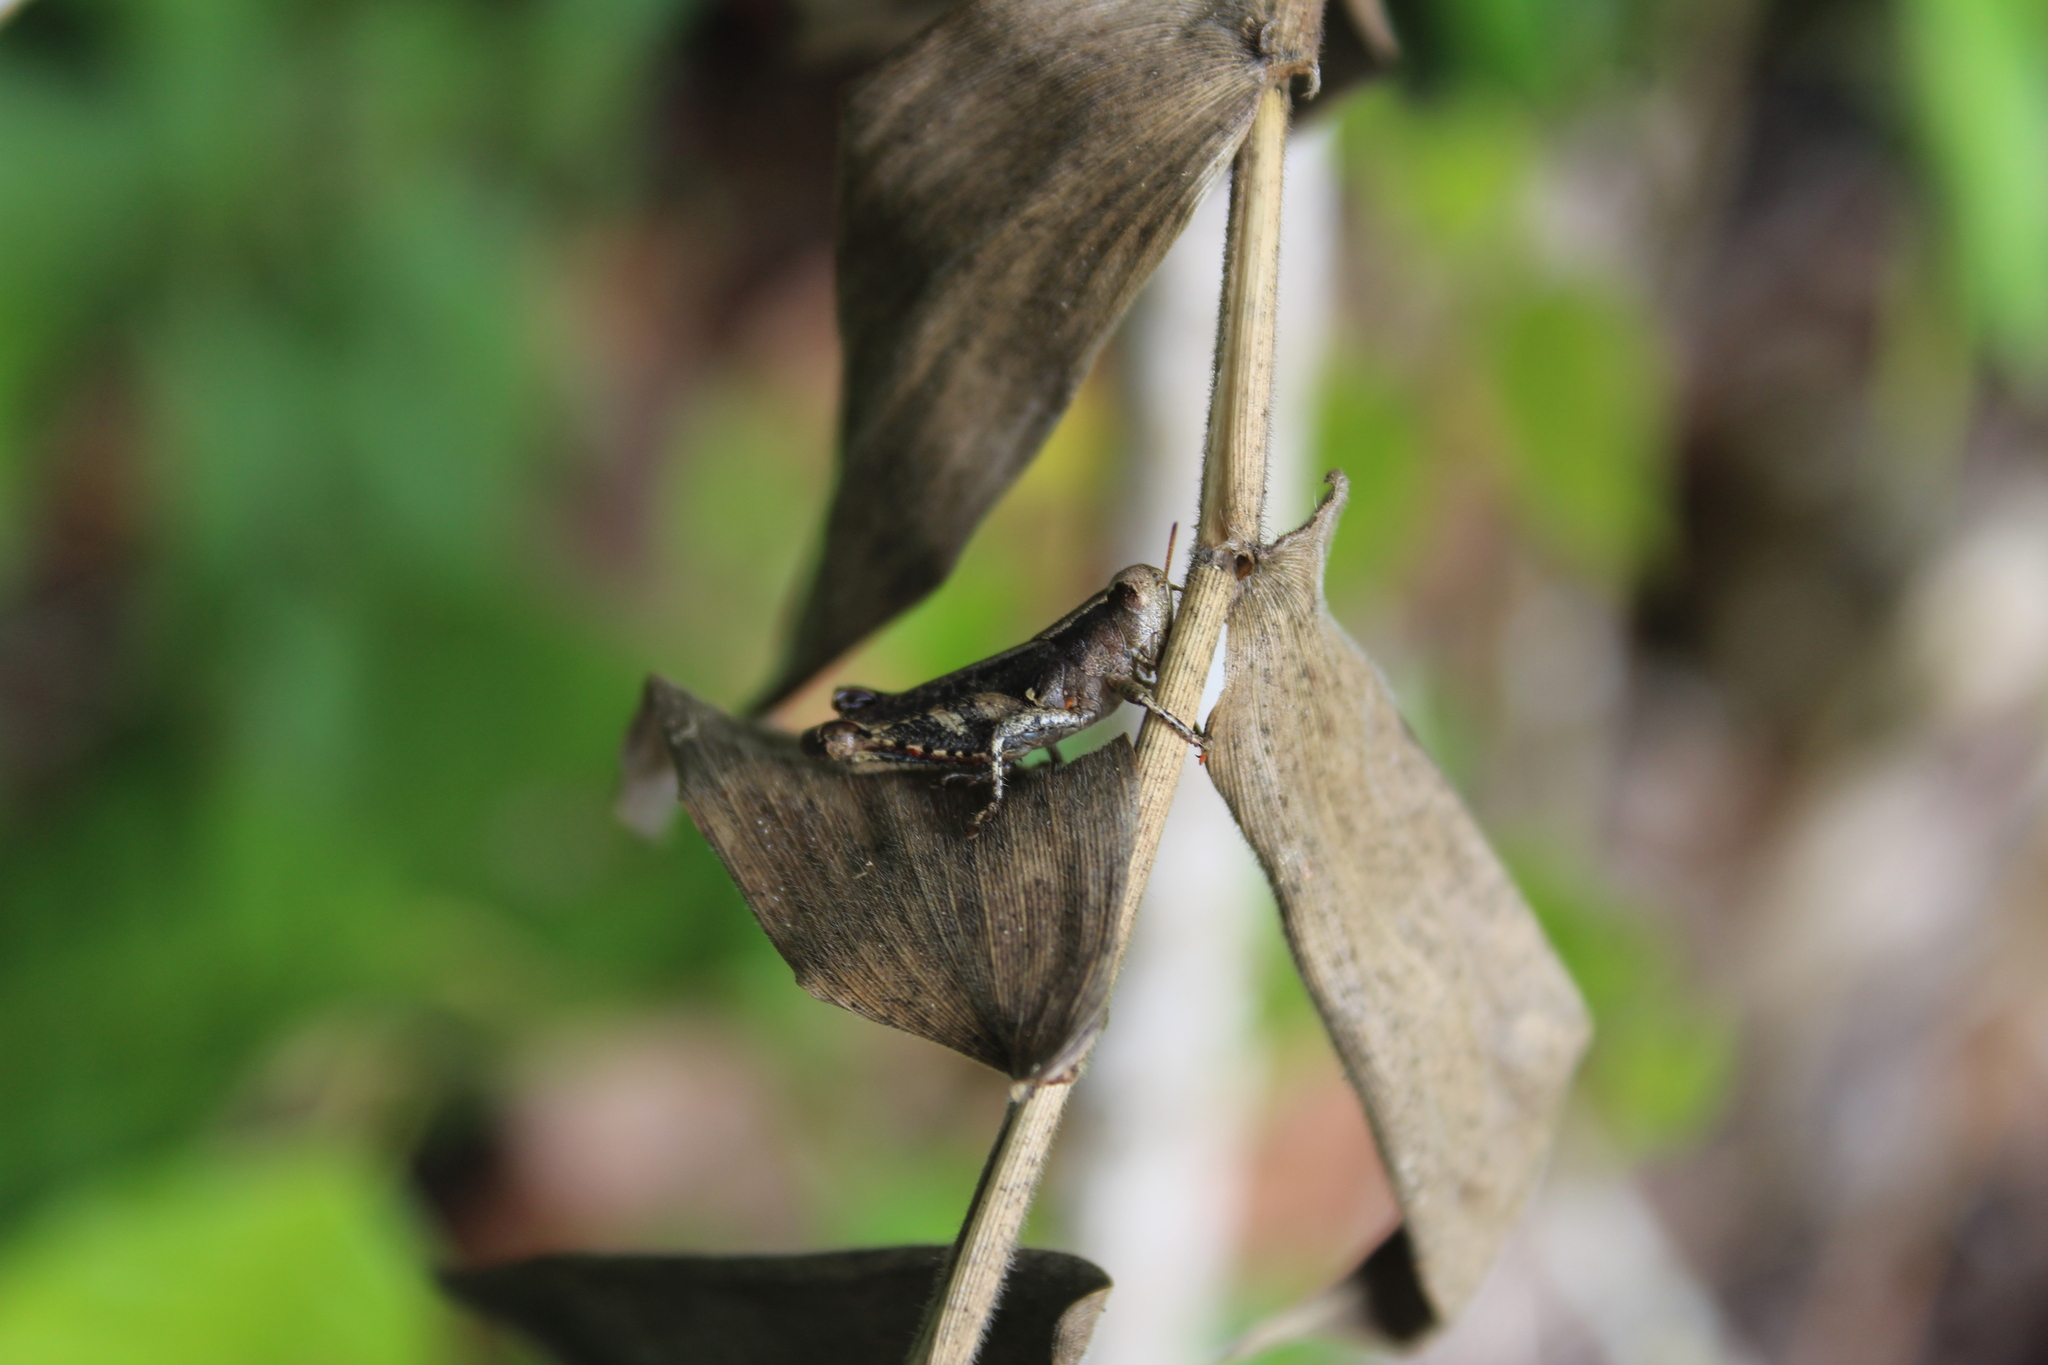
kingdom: Animalia
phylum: Arthropoda
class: Insecta
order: Orthoptera
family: Acrididae
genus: Aidemona
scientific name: Aidemona azteca
